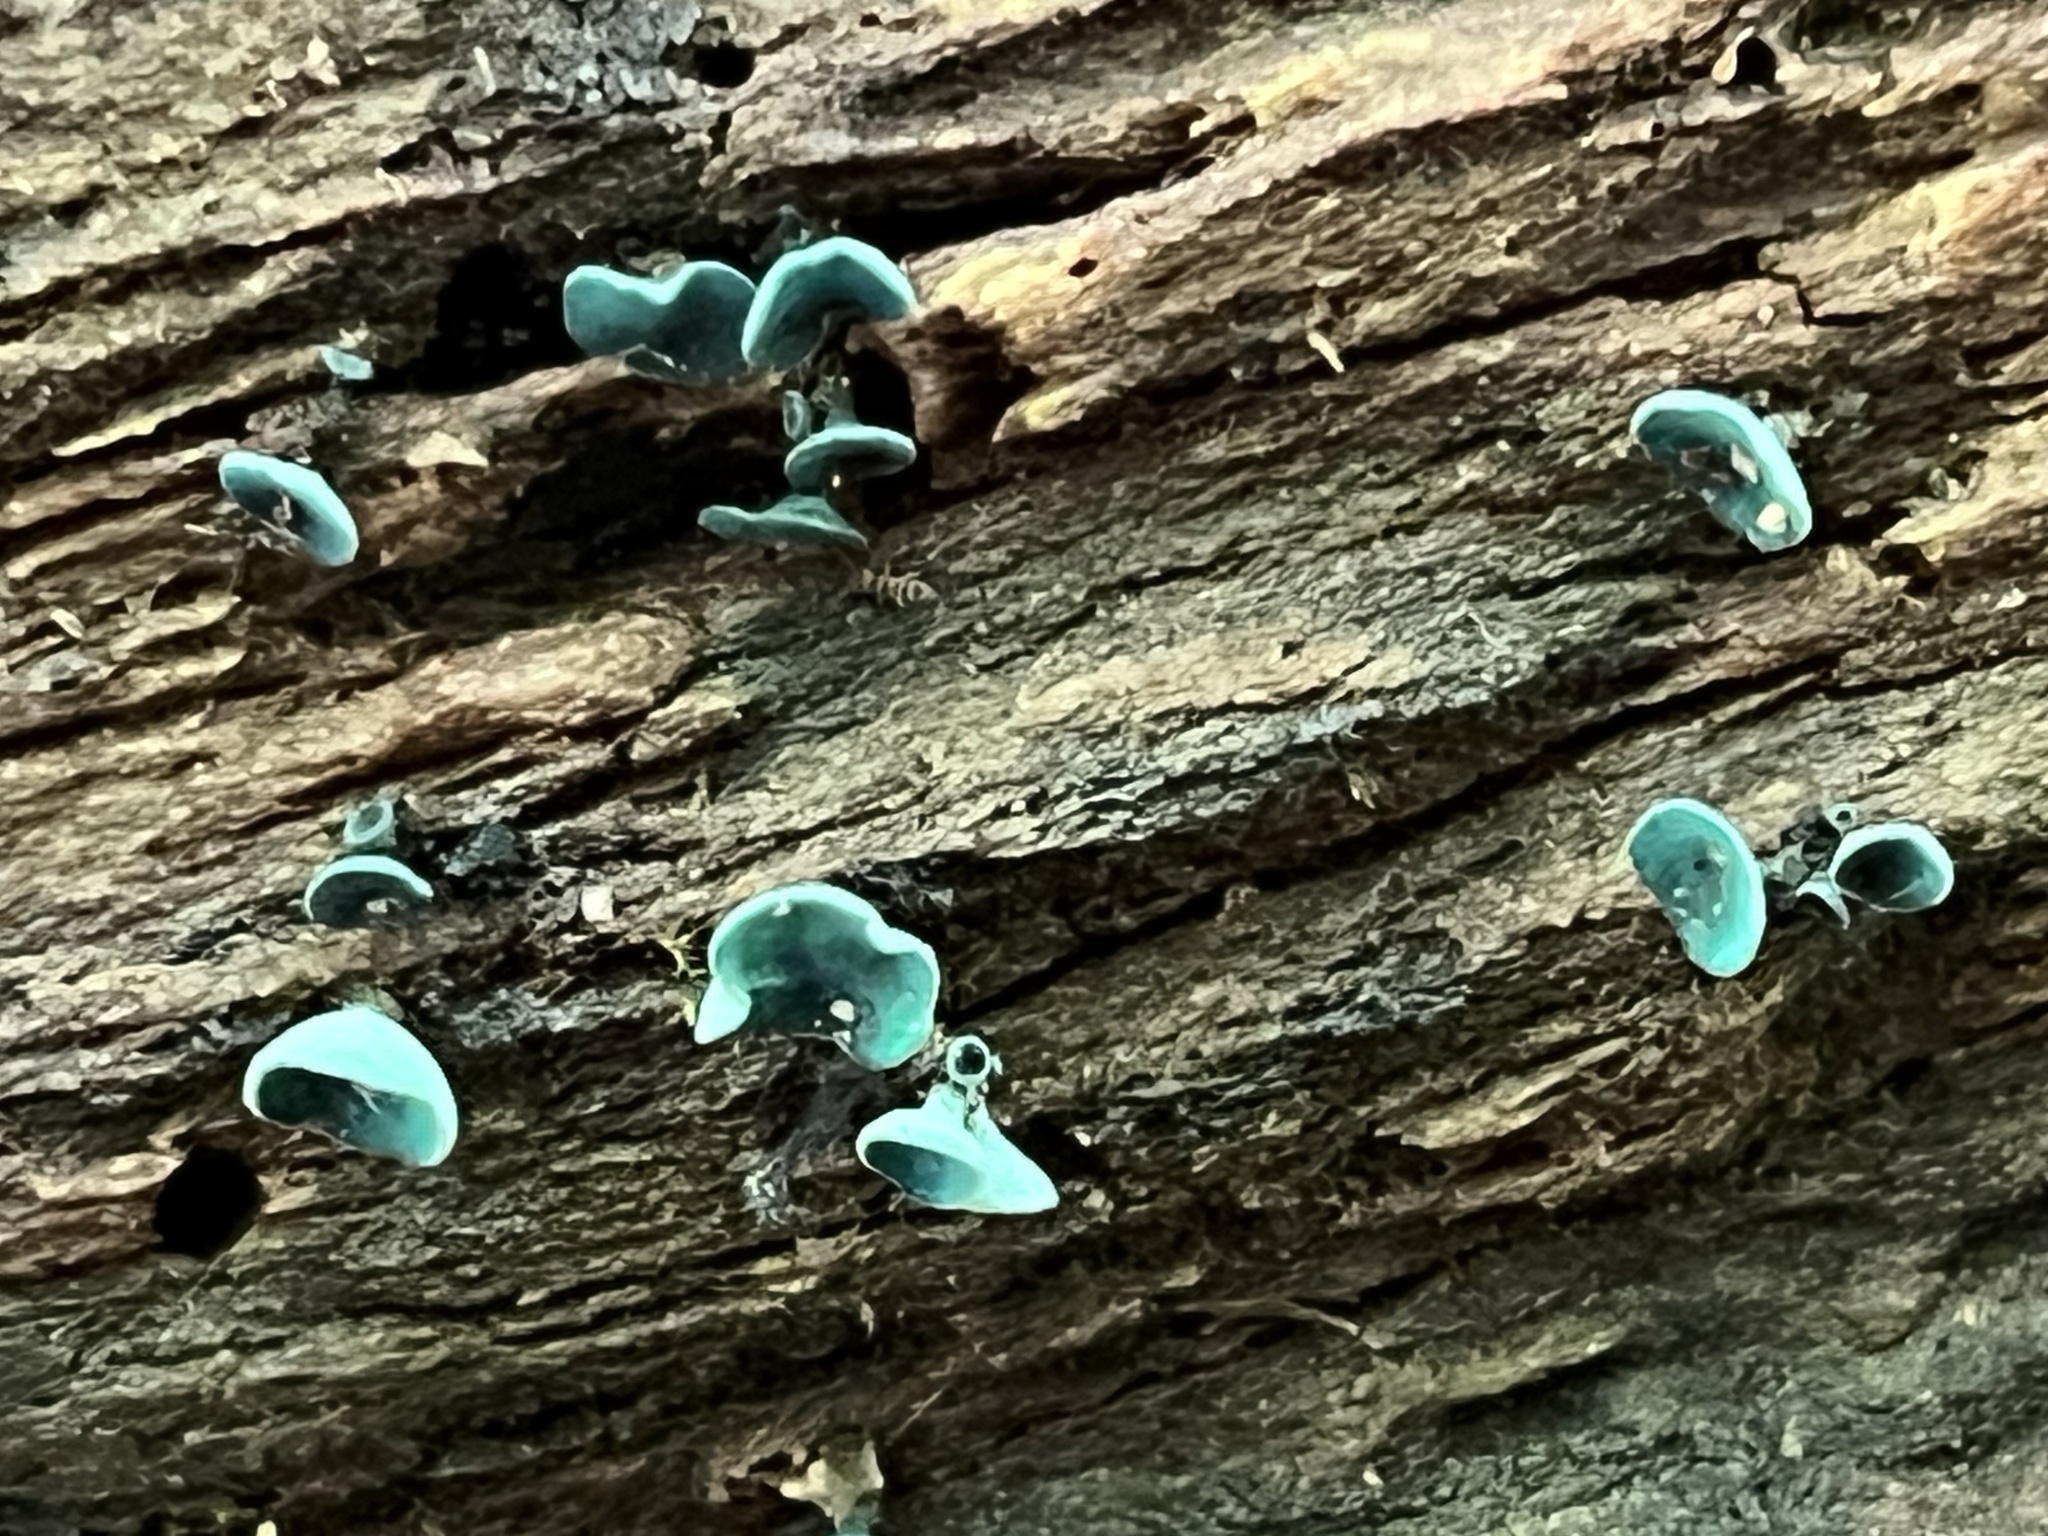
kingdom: Fungi
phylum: Ascomycota
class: Leotiomycetes
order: Helotiales
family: Chlorociboriaceae
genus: Chlorociboria
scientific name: Chlorociboria aeruginascens
